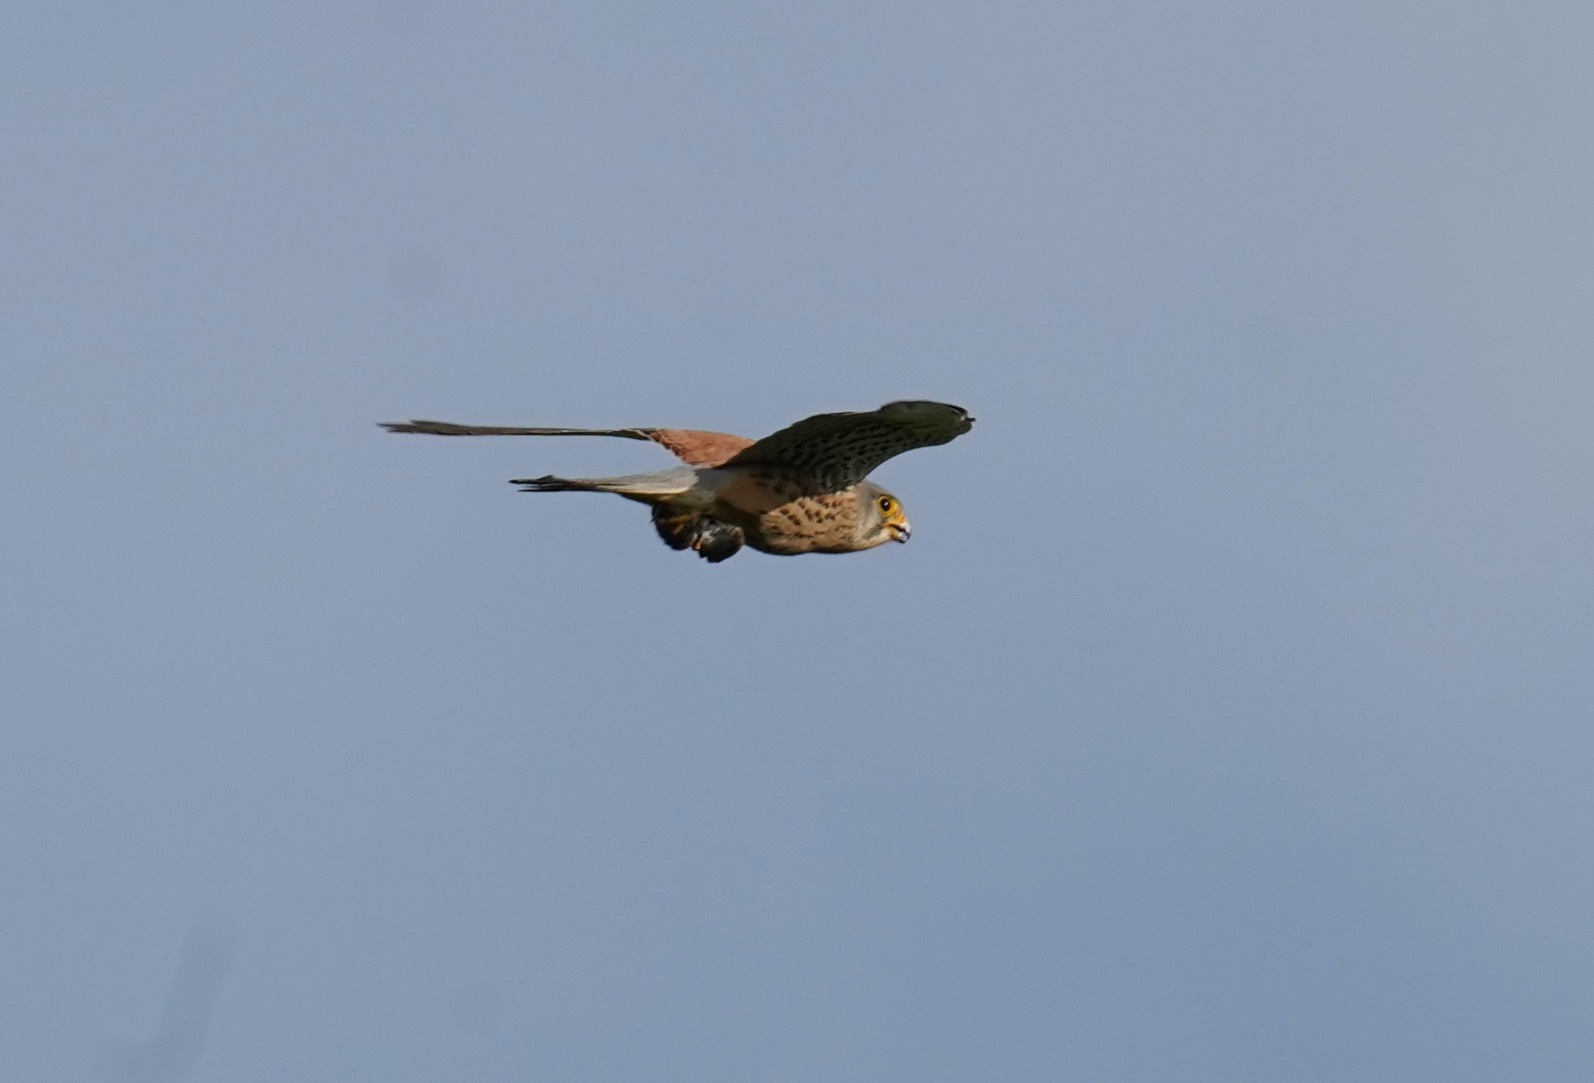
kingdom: Animalia
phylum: Chordata
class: Aves
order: Falconiformes
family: Falconidae
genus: Falco
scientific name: Falco tinnunculus
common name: Common kestrel
